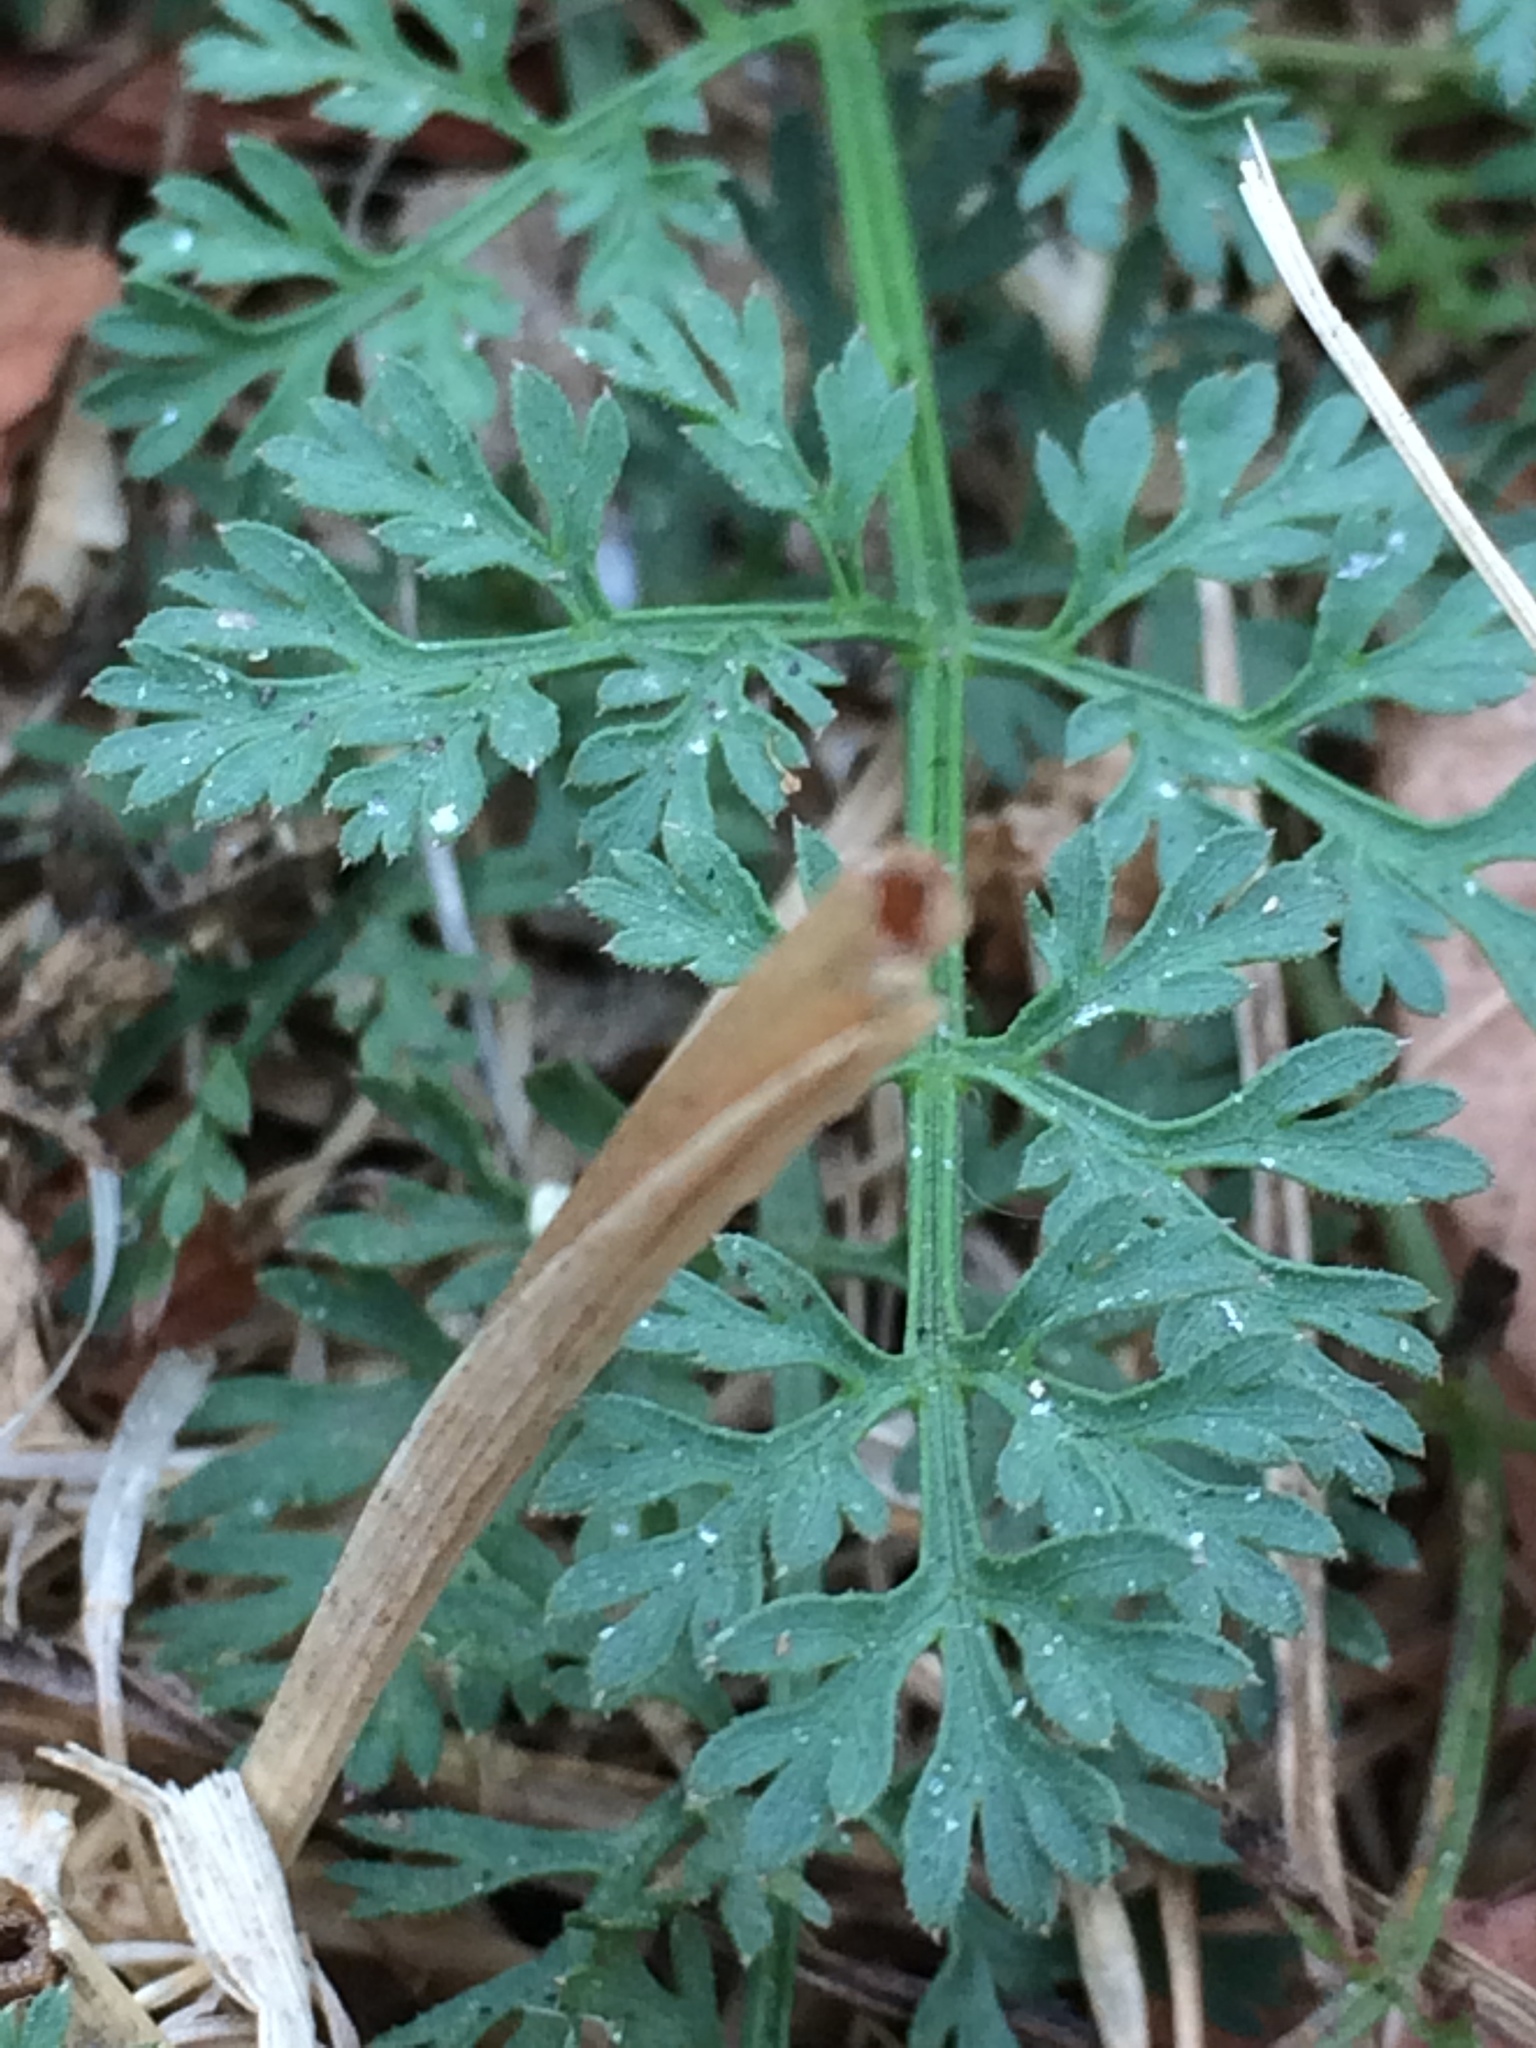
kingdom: Plantae
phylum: Tracheophyta
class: Magnoliopsida
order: Apiales
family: Apiaceae
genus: Daucus
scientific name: Daucus carota
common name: Wild carrot
